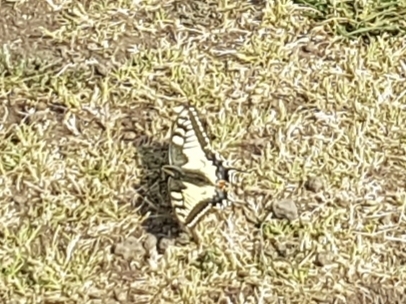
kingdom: Animalia
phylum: Arthropoda
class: Insecta
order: Lepidoptera
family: Papilionidae
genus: Papilio
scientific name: Papilio machaon
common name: Swallowtail
